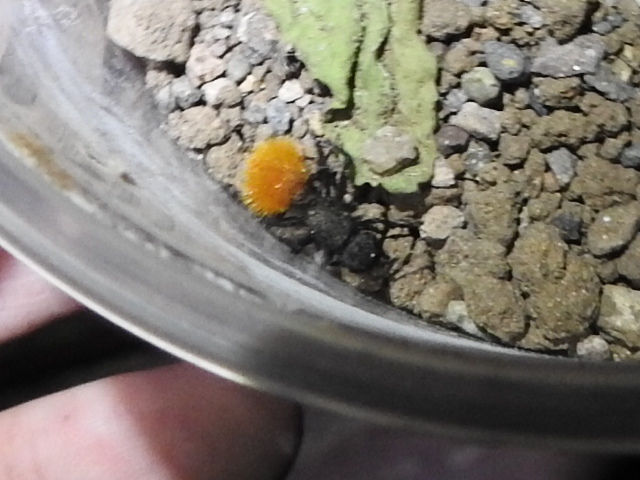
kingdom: Animalia
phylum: Arthropoda
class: Insecta
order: Hymenoptera
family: Mutillidae
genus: Dasymutilla
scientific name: Dasymutilla
